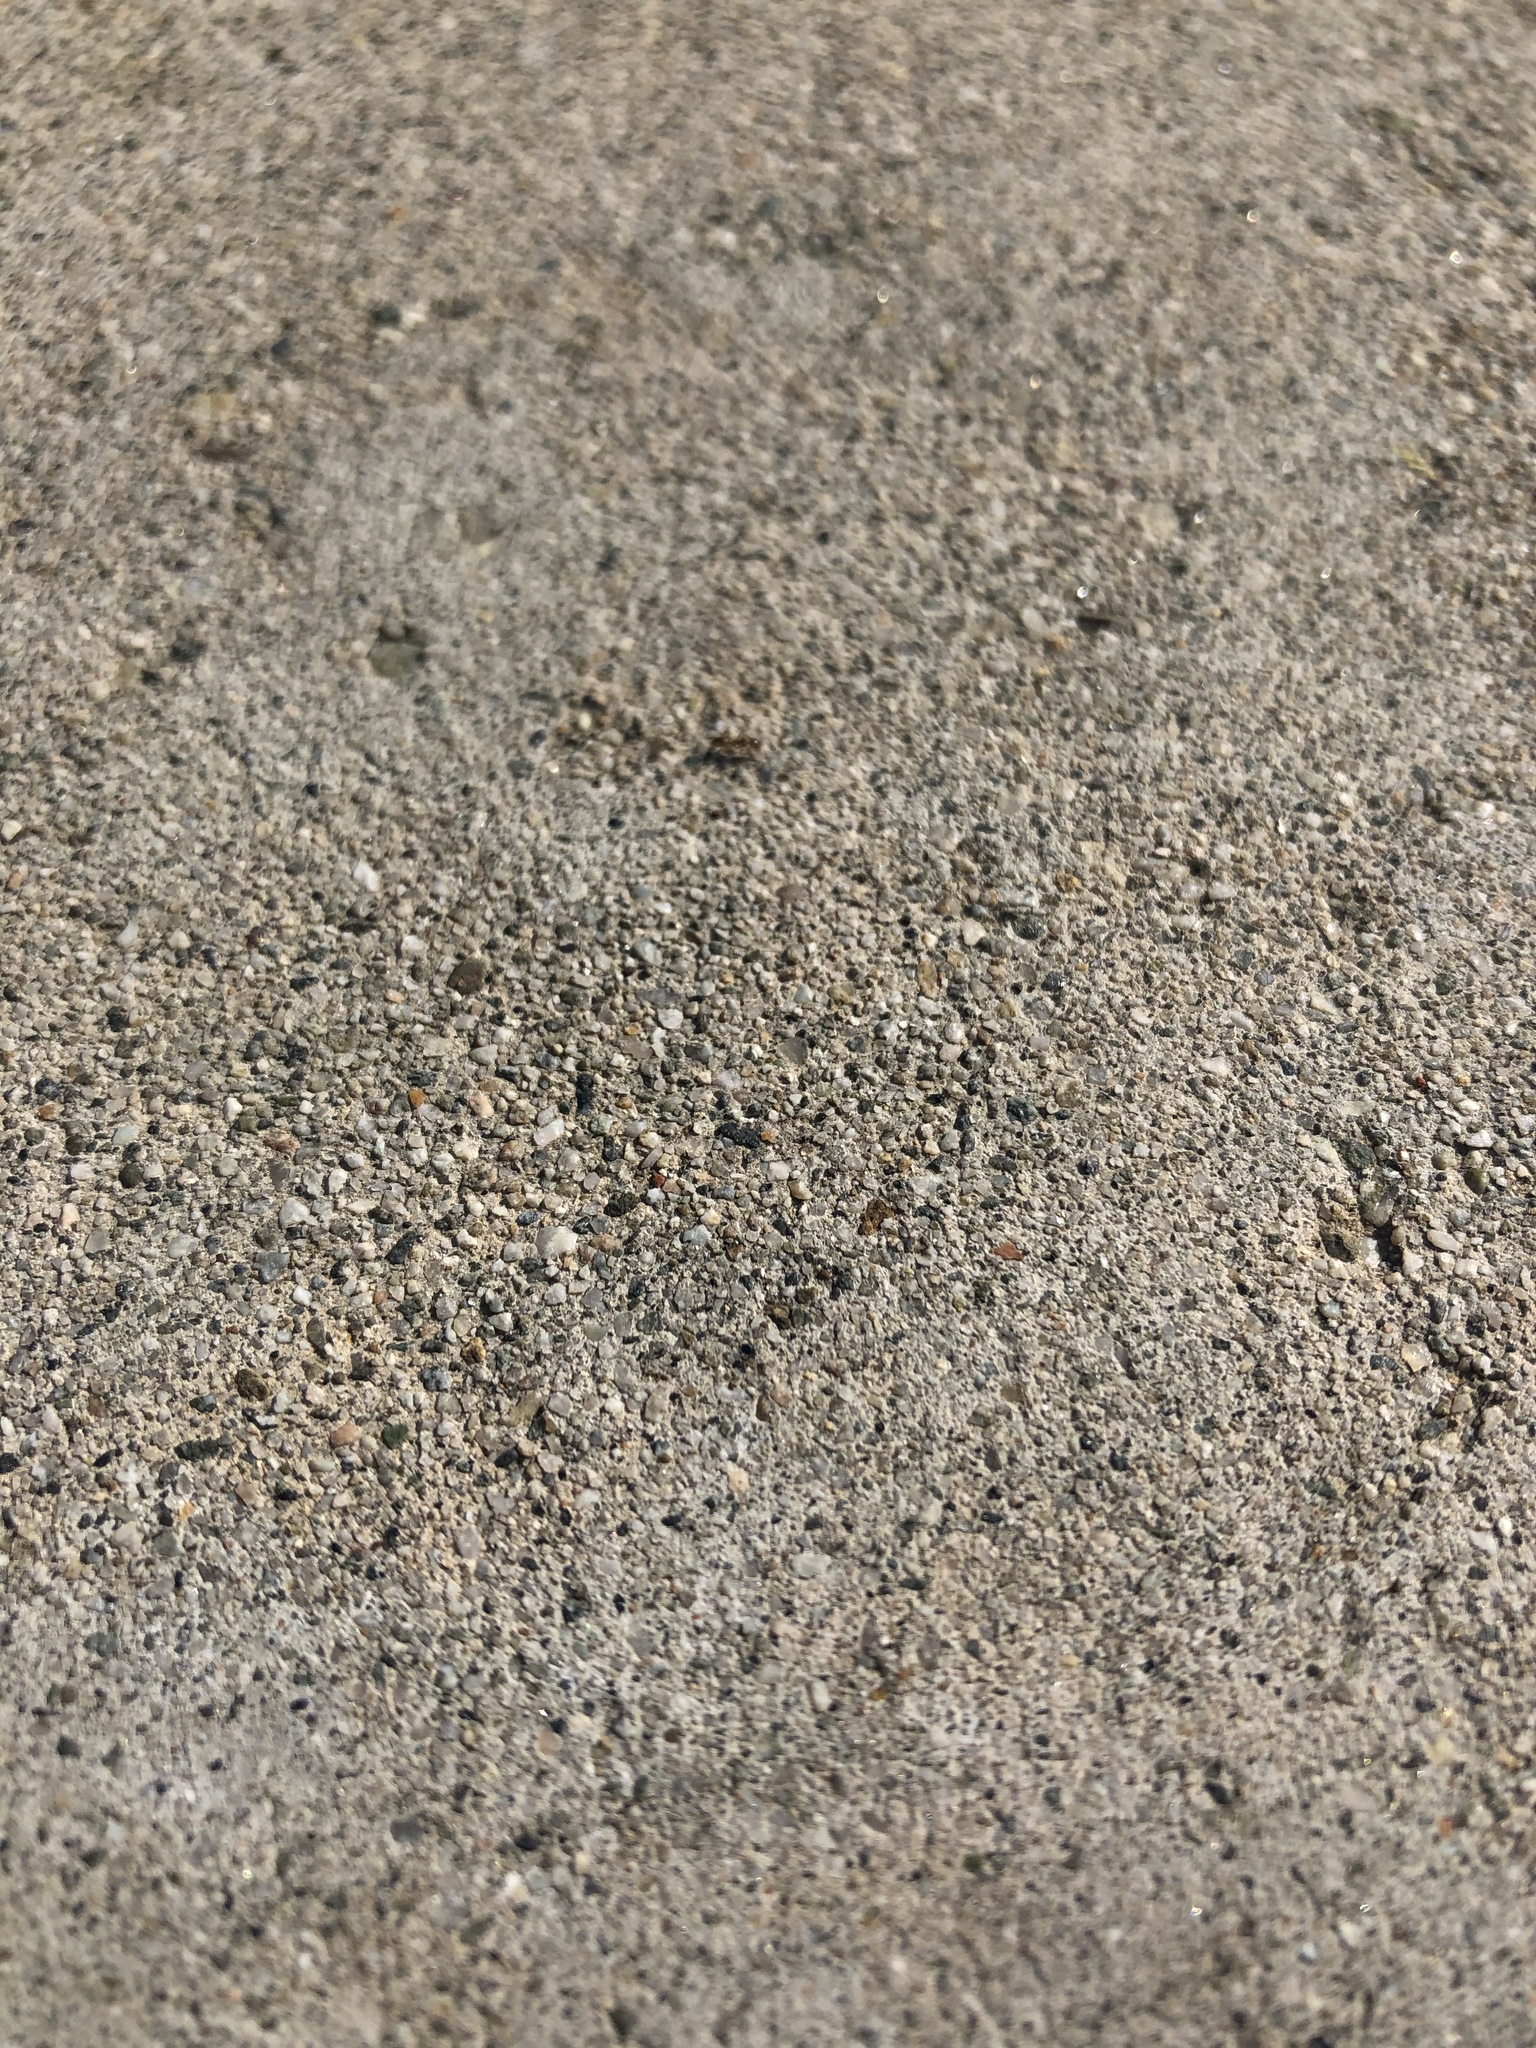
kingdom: Animalia
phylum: Arthropoda
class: Insecta
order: Hymenoptera
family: Formicidae
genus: Linepithema
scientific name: Linepithema humile
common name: Argentine ant
